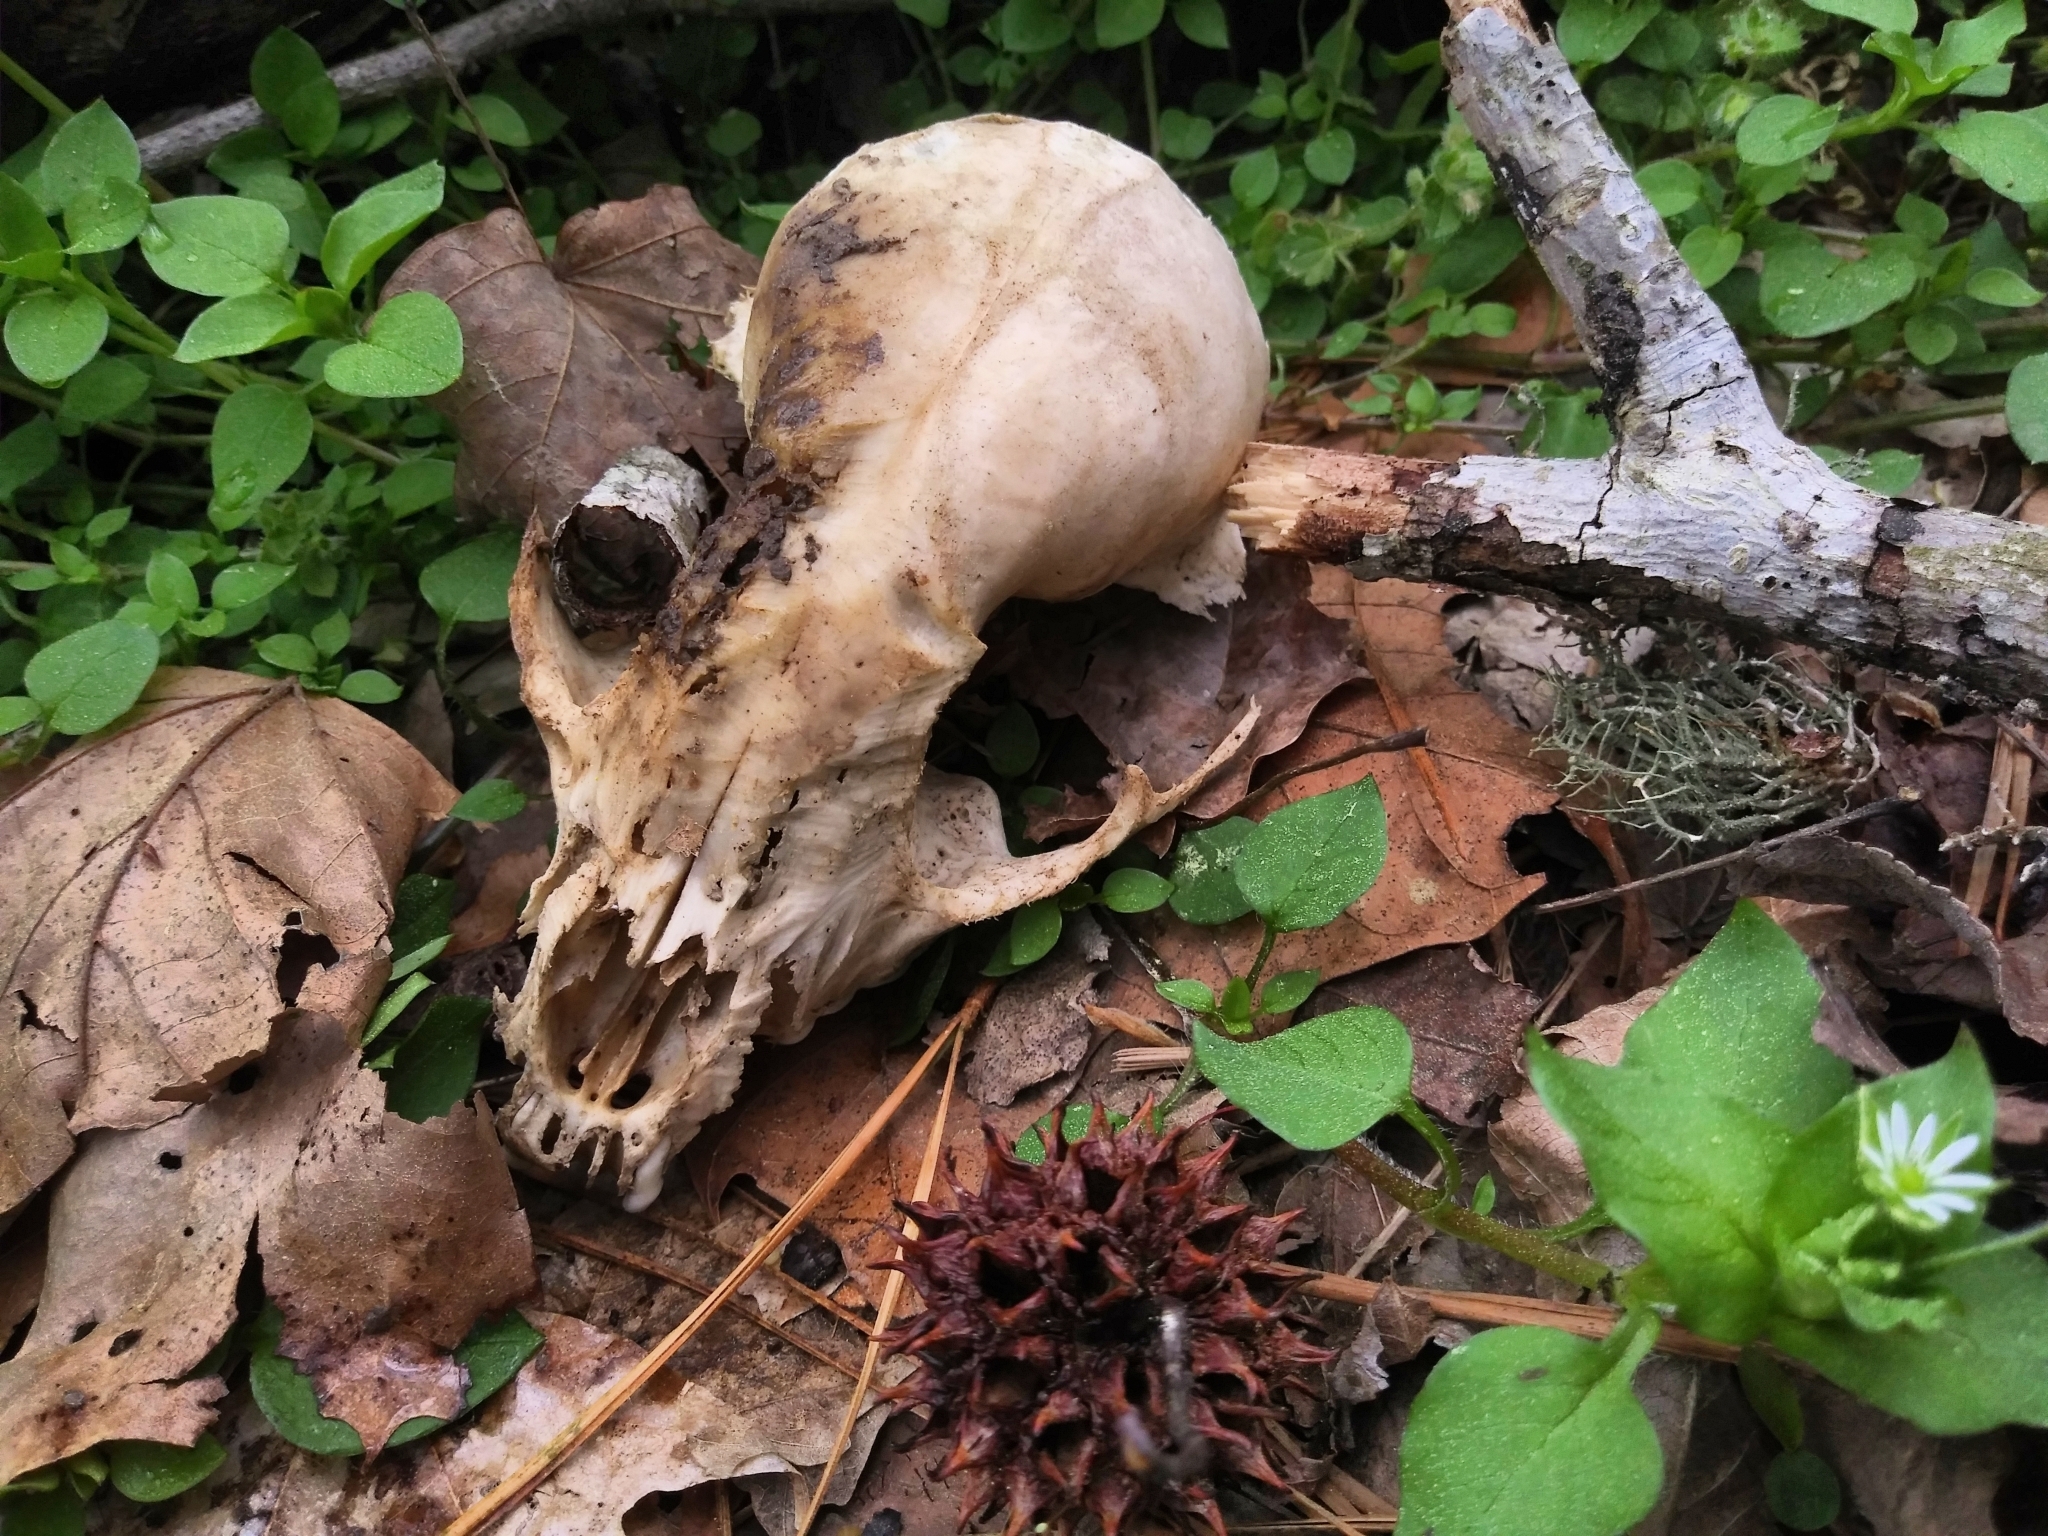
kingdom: Animalia
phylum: Chordata
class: Mammalia
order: Carnivora
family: Procyonidae
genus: Procyon
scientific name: Procyon lotor
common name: Raccoon
